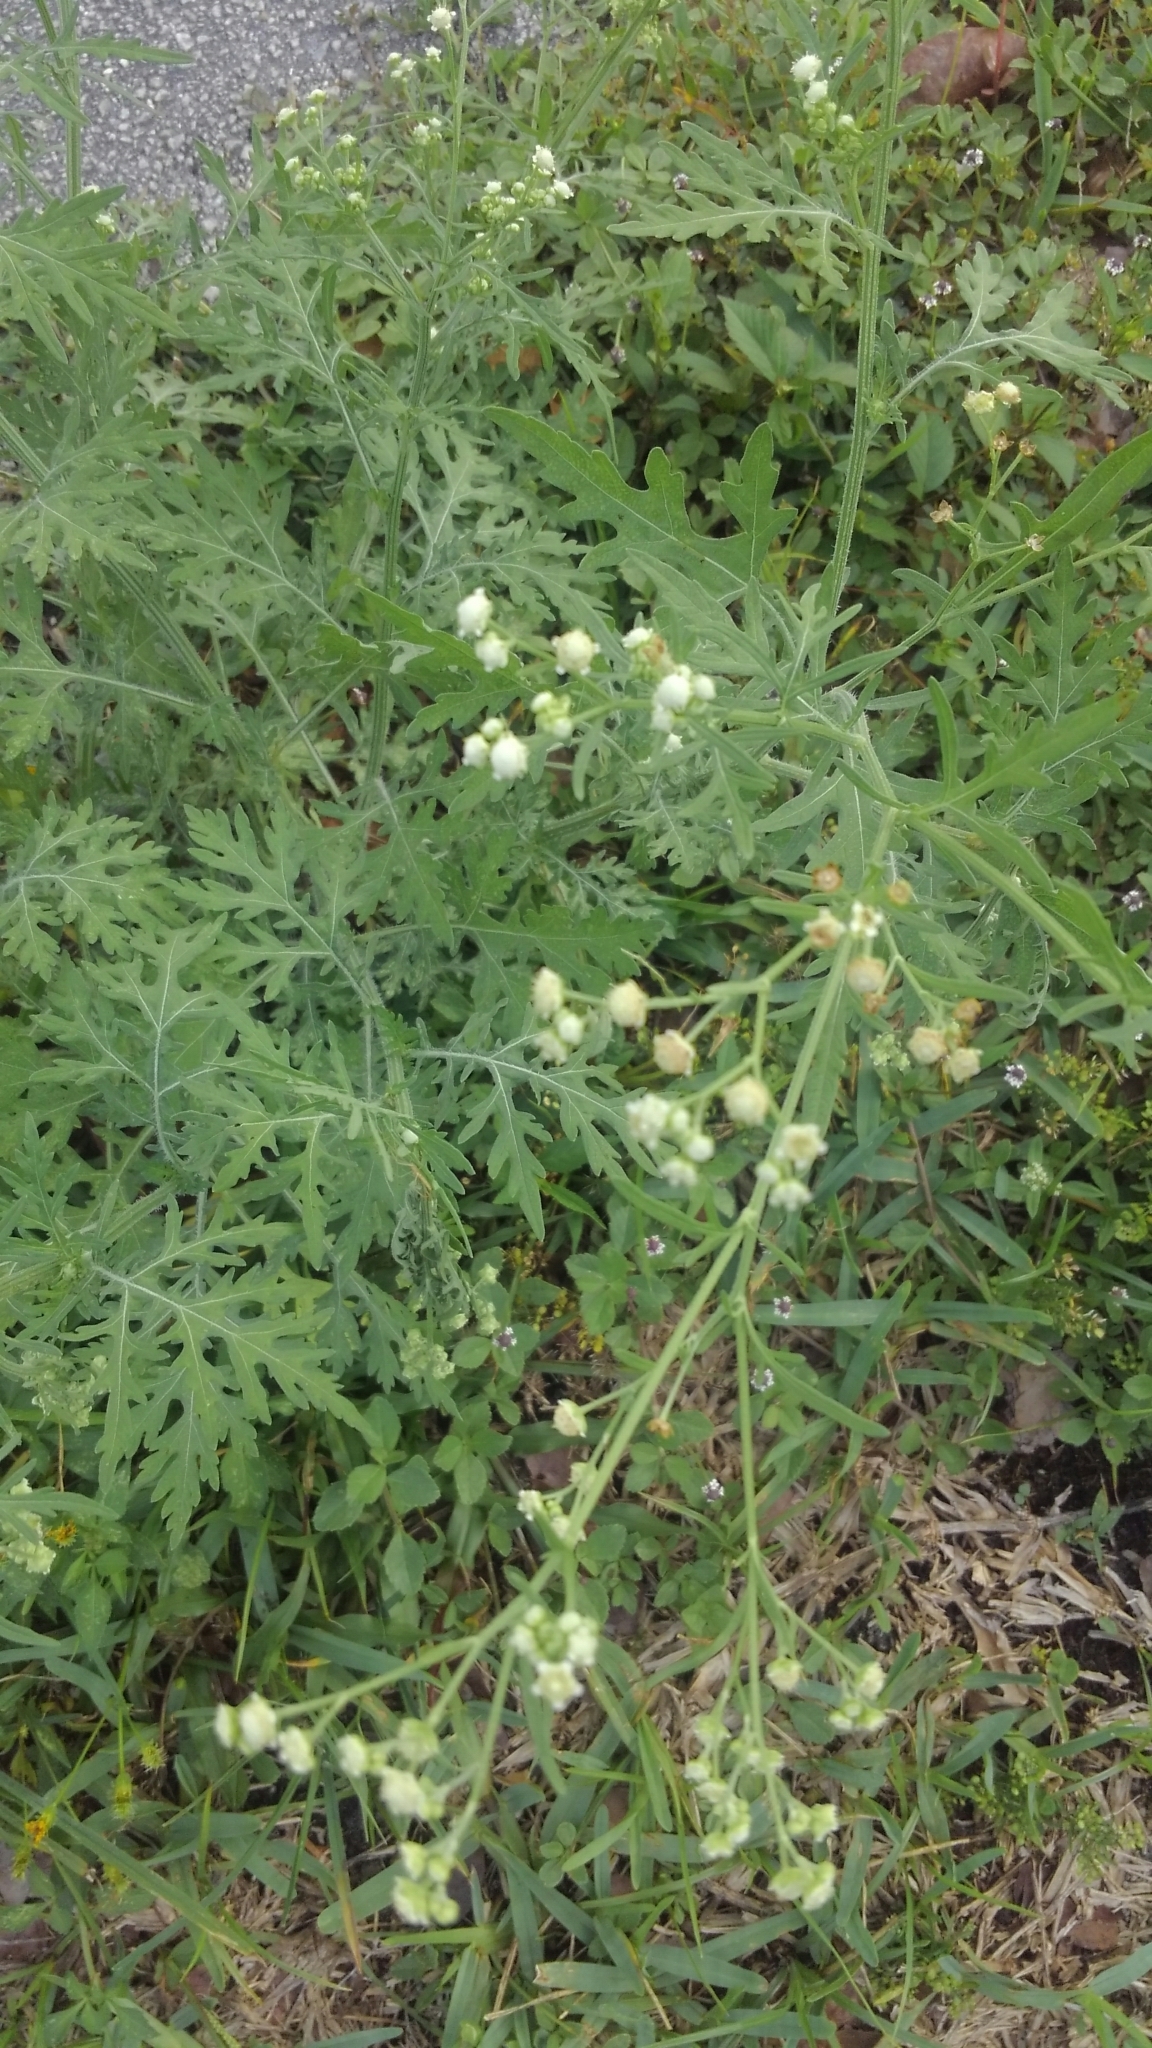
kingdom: Plantae
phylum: Tracheophyta
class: Magnoliopsida
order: Asterales
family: Asteraceae
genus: Parthenium
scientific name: Parthenium hysterophorus
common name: Santa maria feverfew
